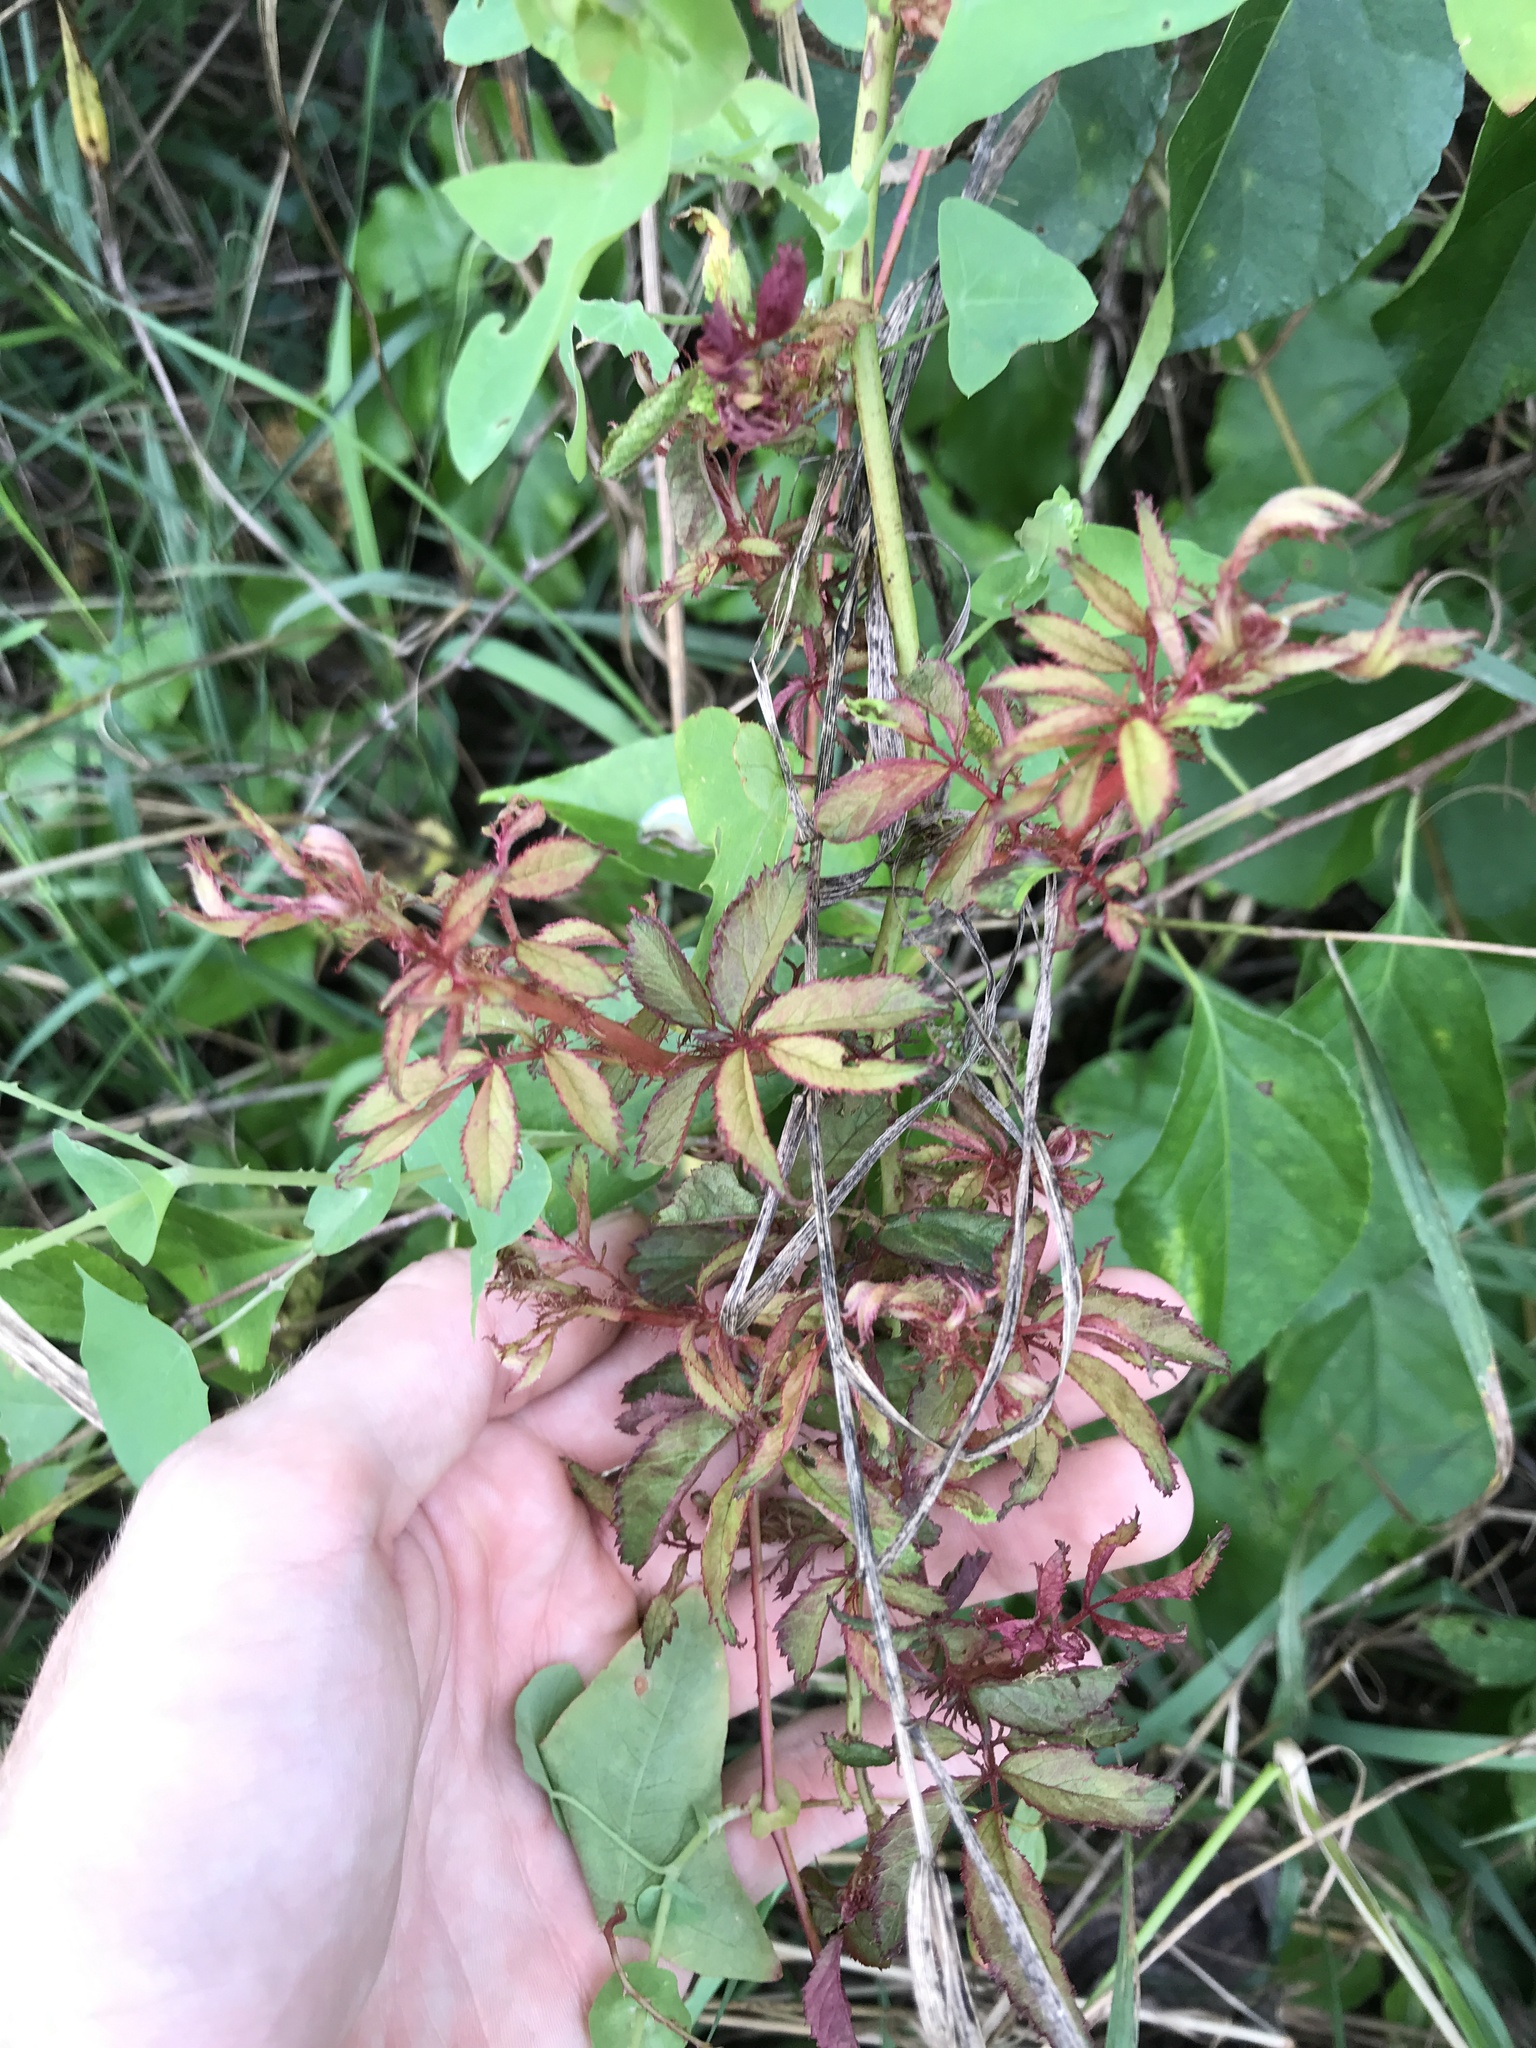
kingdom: Viruses
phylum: Negarnaviricota
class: Ellioviricetes
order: Bunyavirales
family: Fimoviridae
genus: Emaravirus
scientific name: Emaravirus rosae
